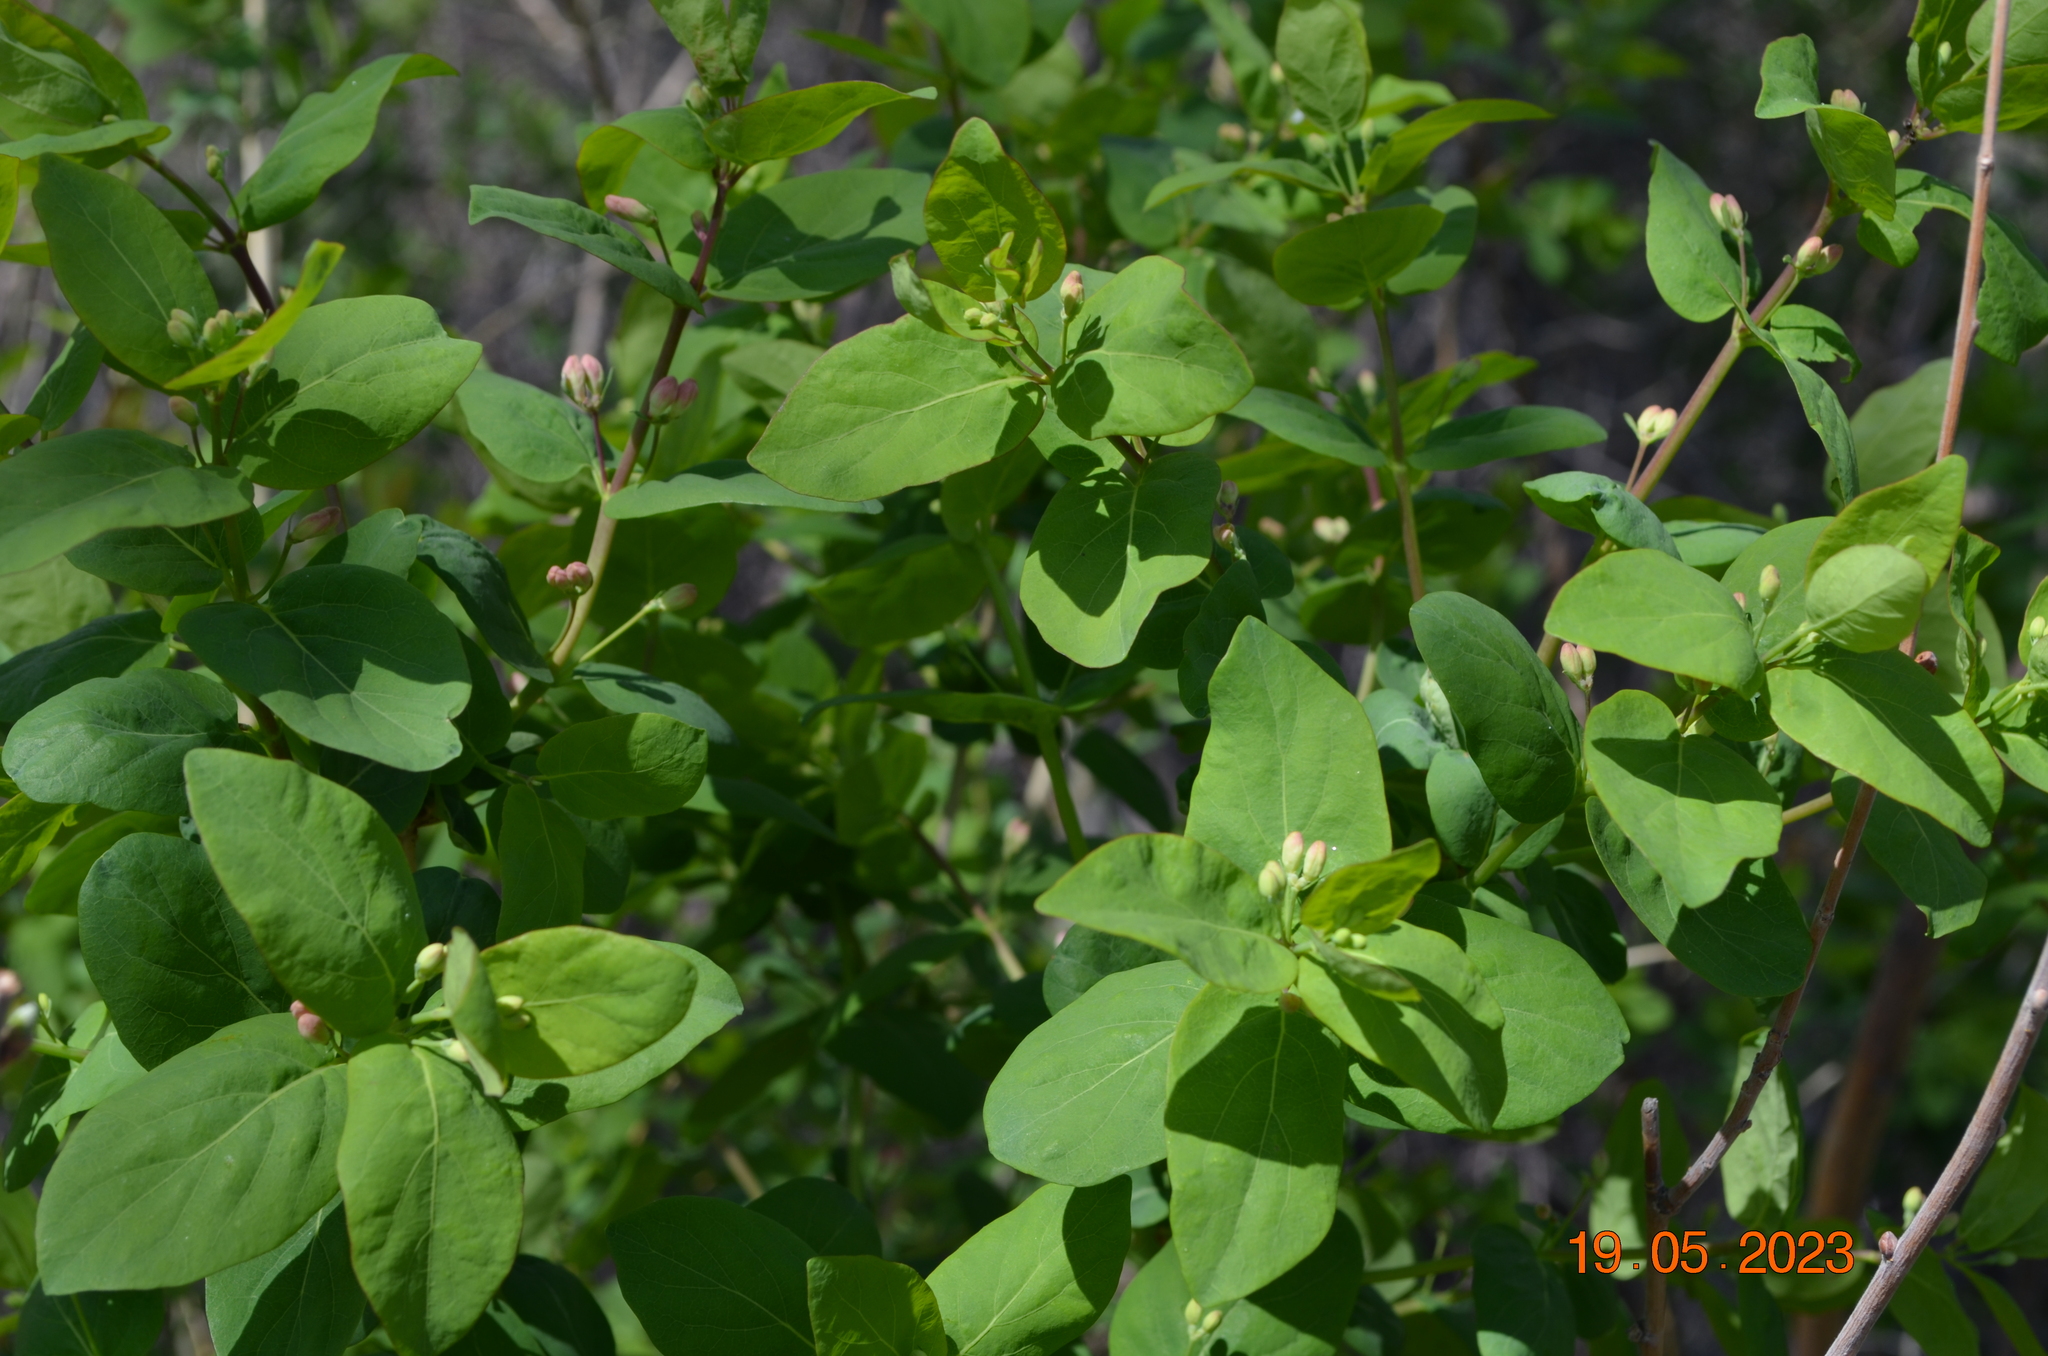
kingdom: Plantae
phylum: Tracheophyta
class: Magnoliopsida
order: Dipsacales
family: Caprifoliaceae
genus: Lonicera
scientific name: Lonicera tatarica
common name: Tatarian honeysuckle
